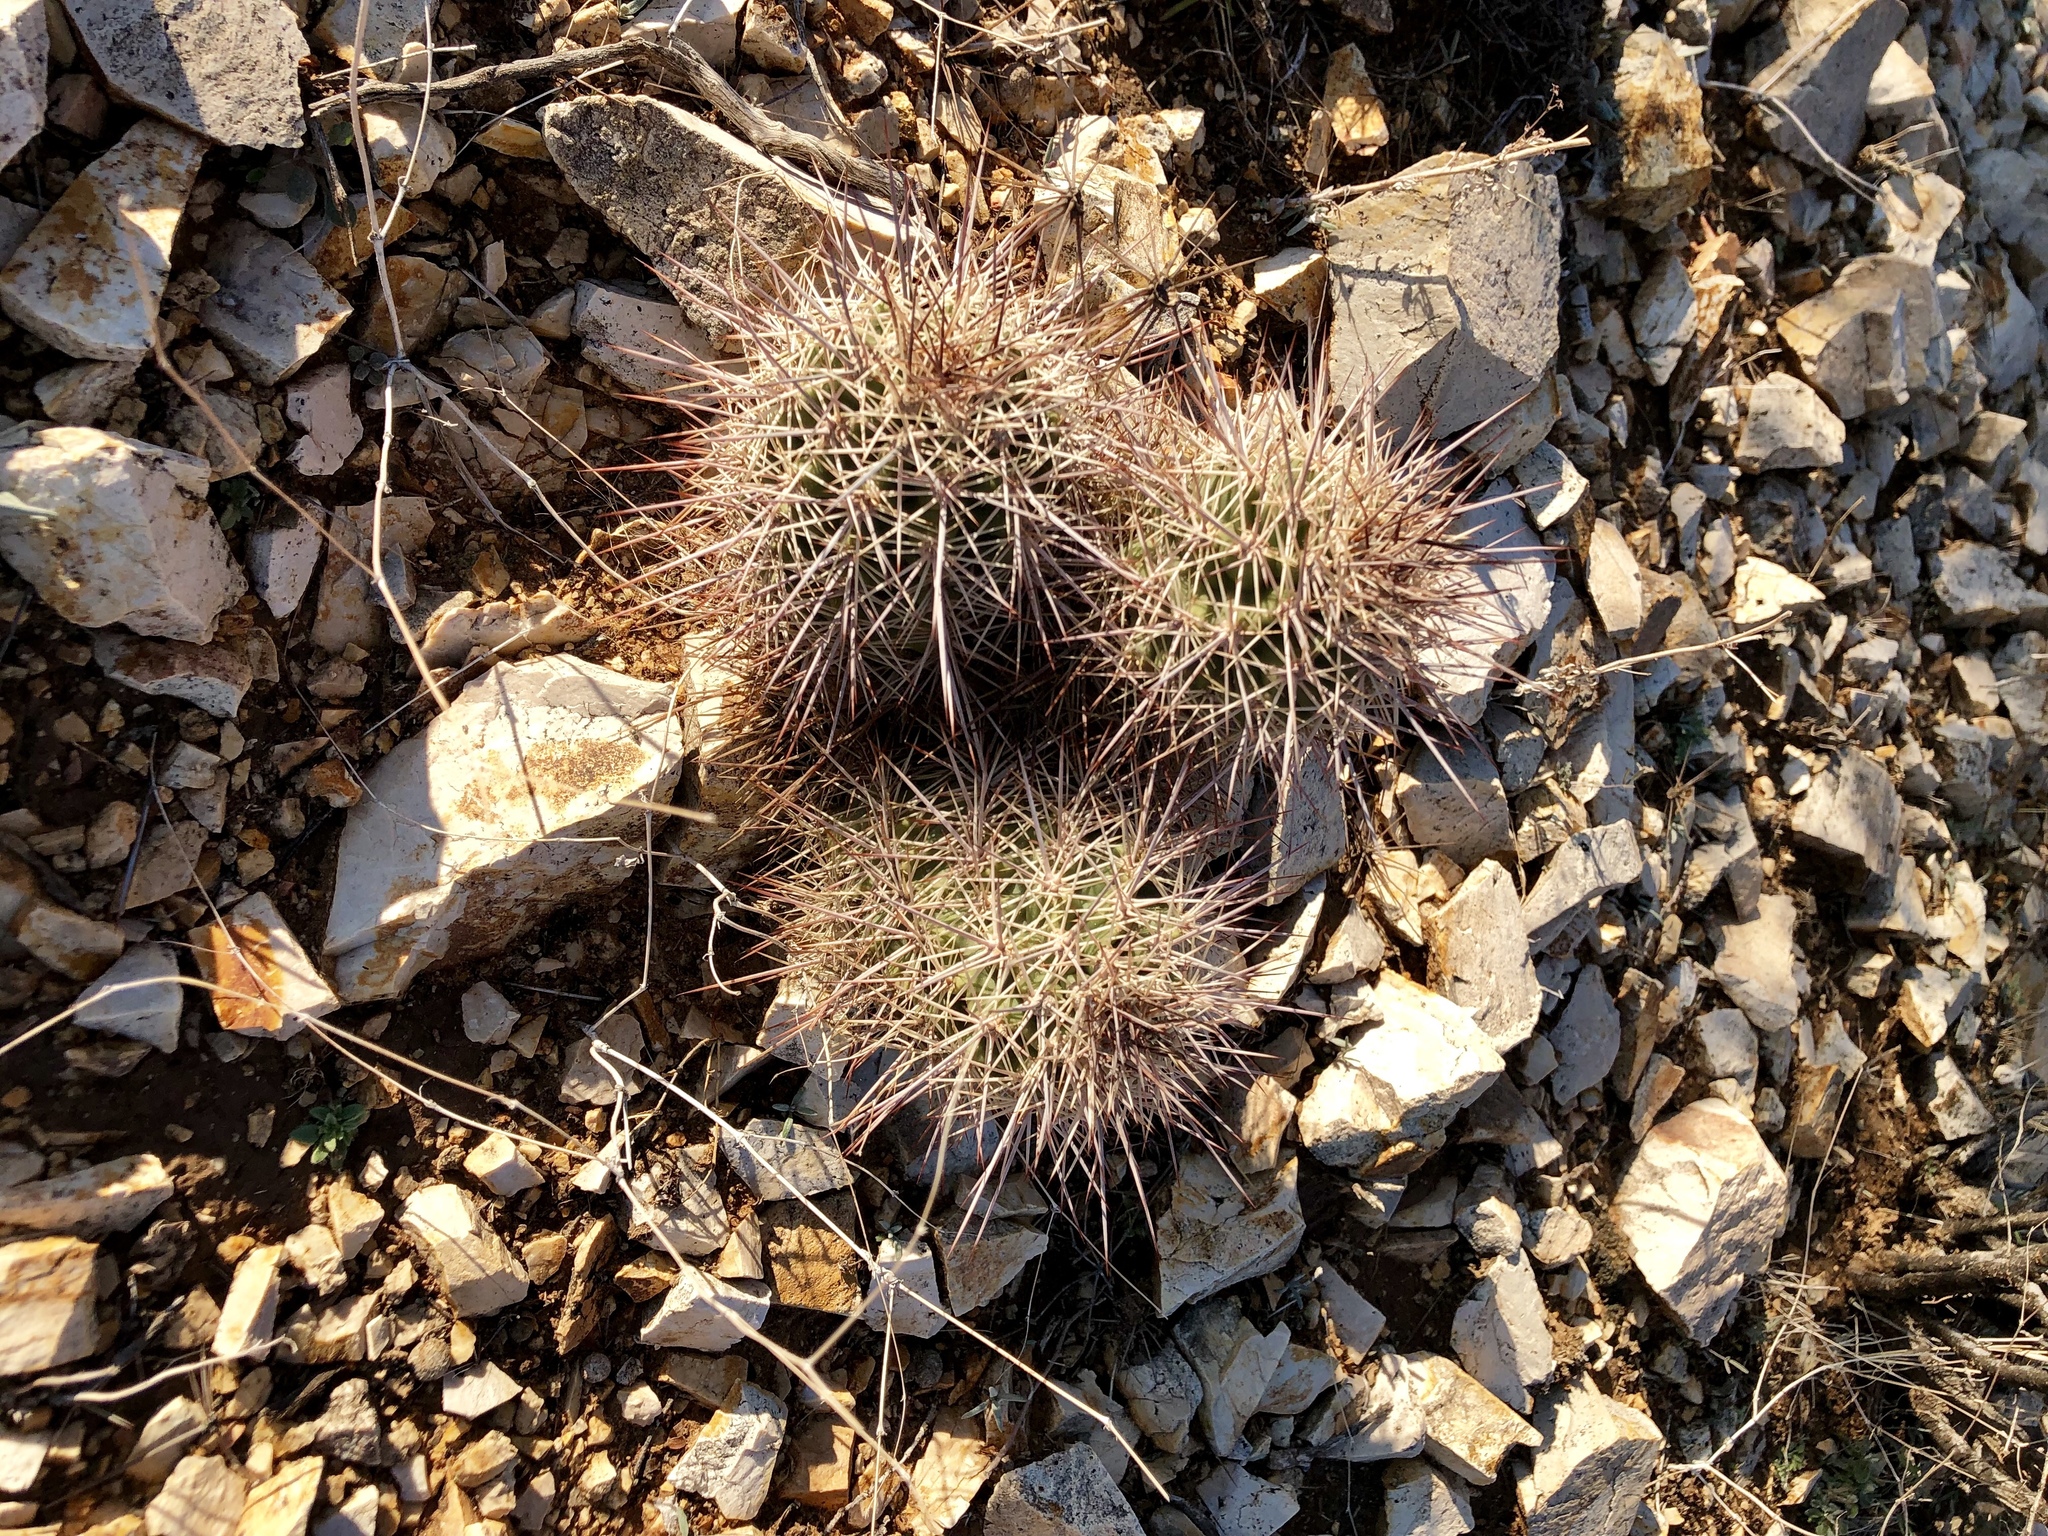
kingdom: Plantae
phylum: Tracheophyta
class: Magnoliopsida
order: Caryophyllales
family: Cactaceae
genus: Echinocereus
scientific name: Echinocereus coccineus
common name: Scarlet hedgehog cactus
